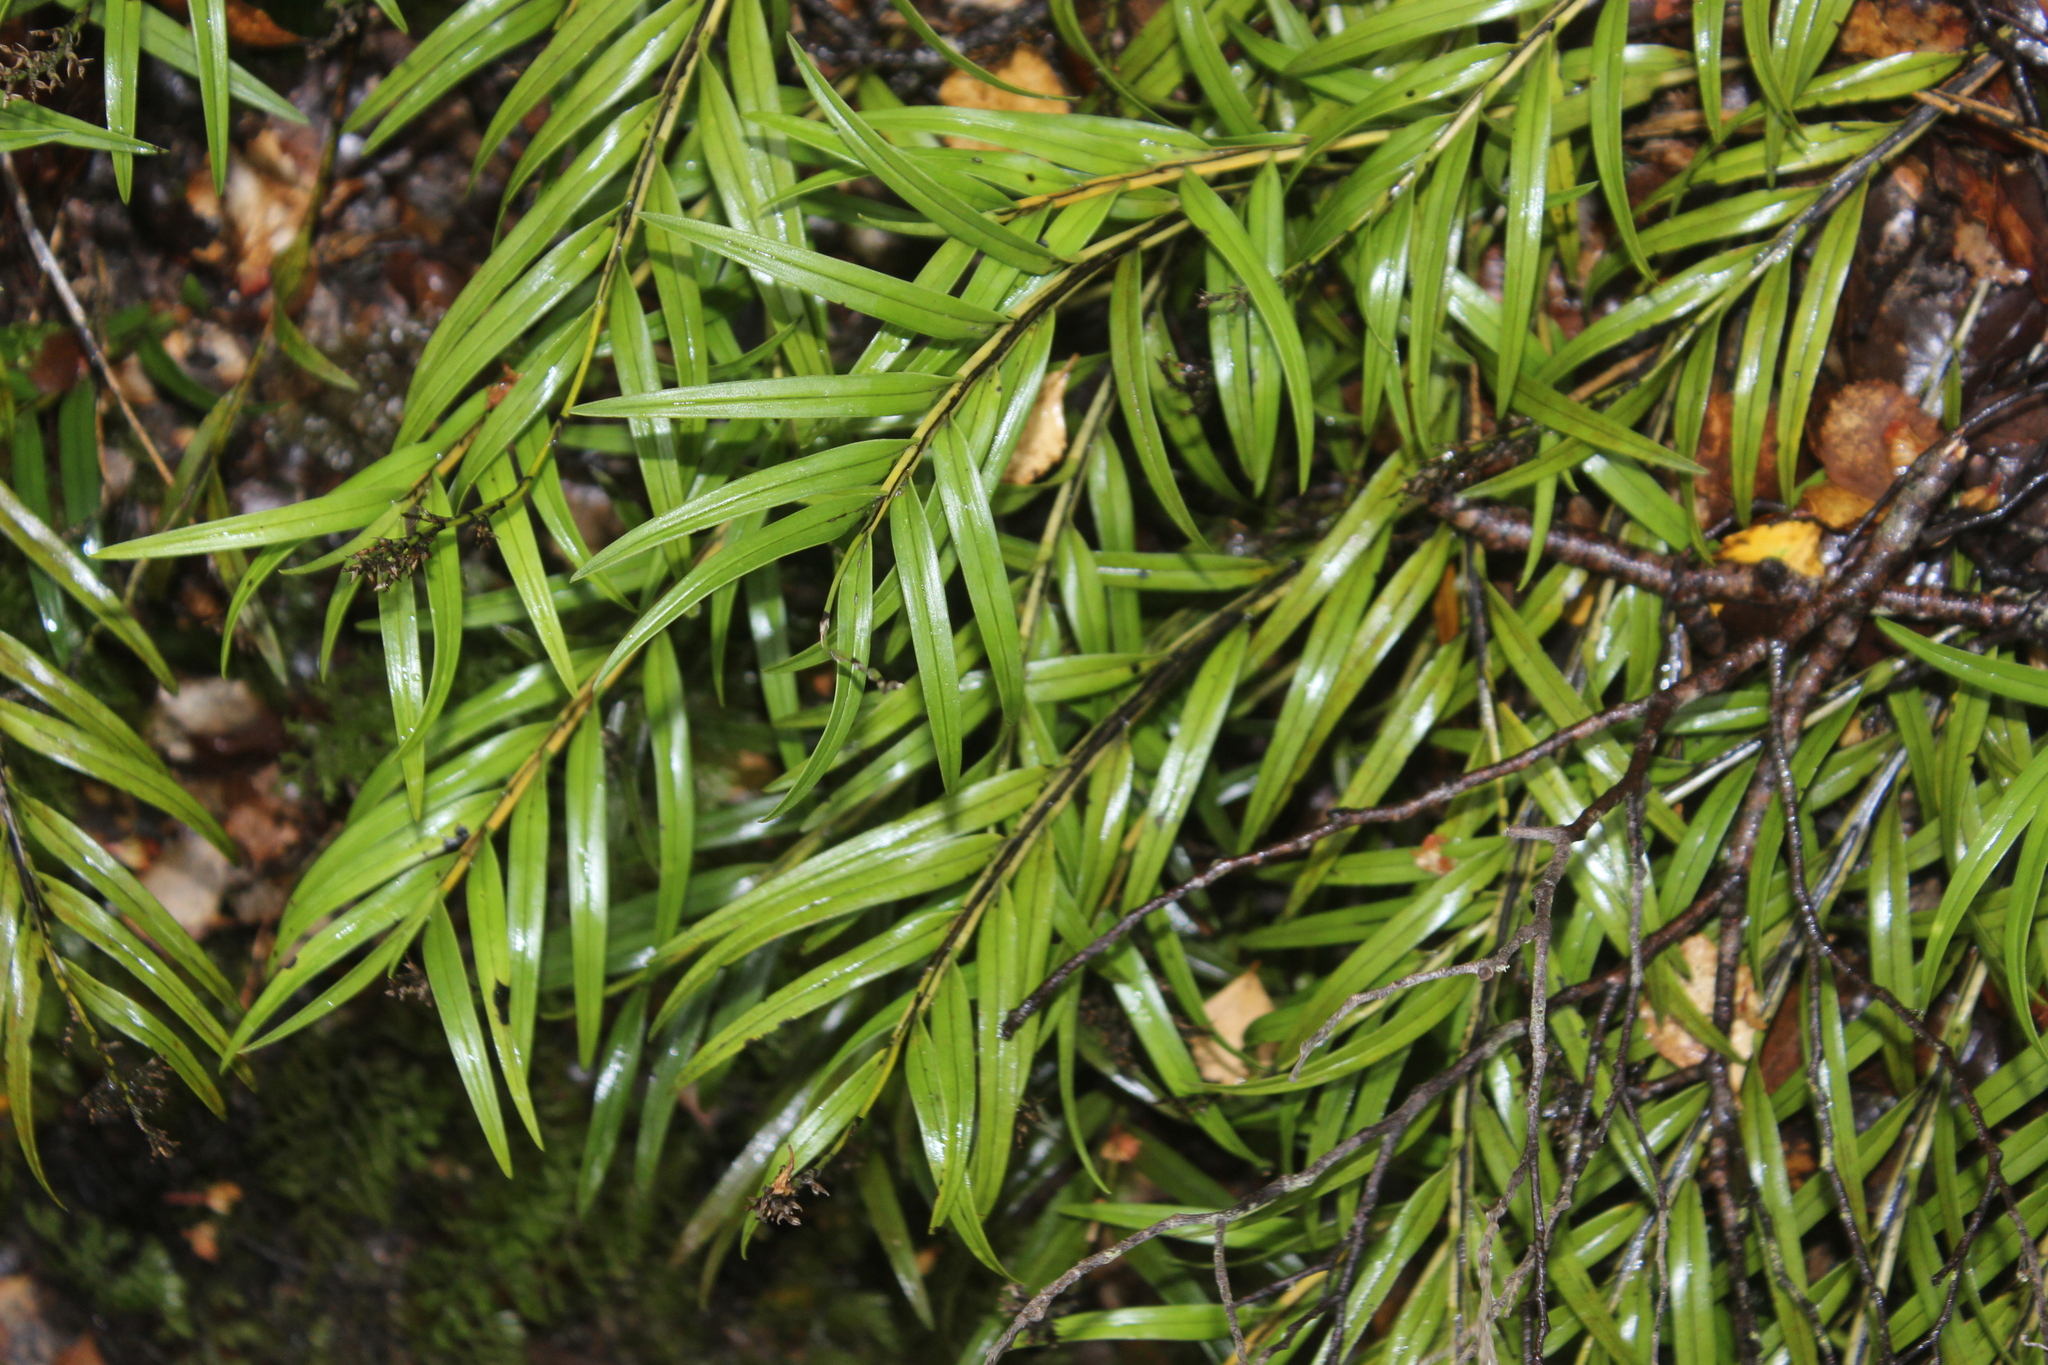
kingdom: Plantae
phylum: Tracheophyta
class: Liliopsida
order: Asparagales
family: Orchidaceae
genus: Earina
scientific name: Earina autumnalis
